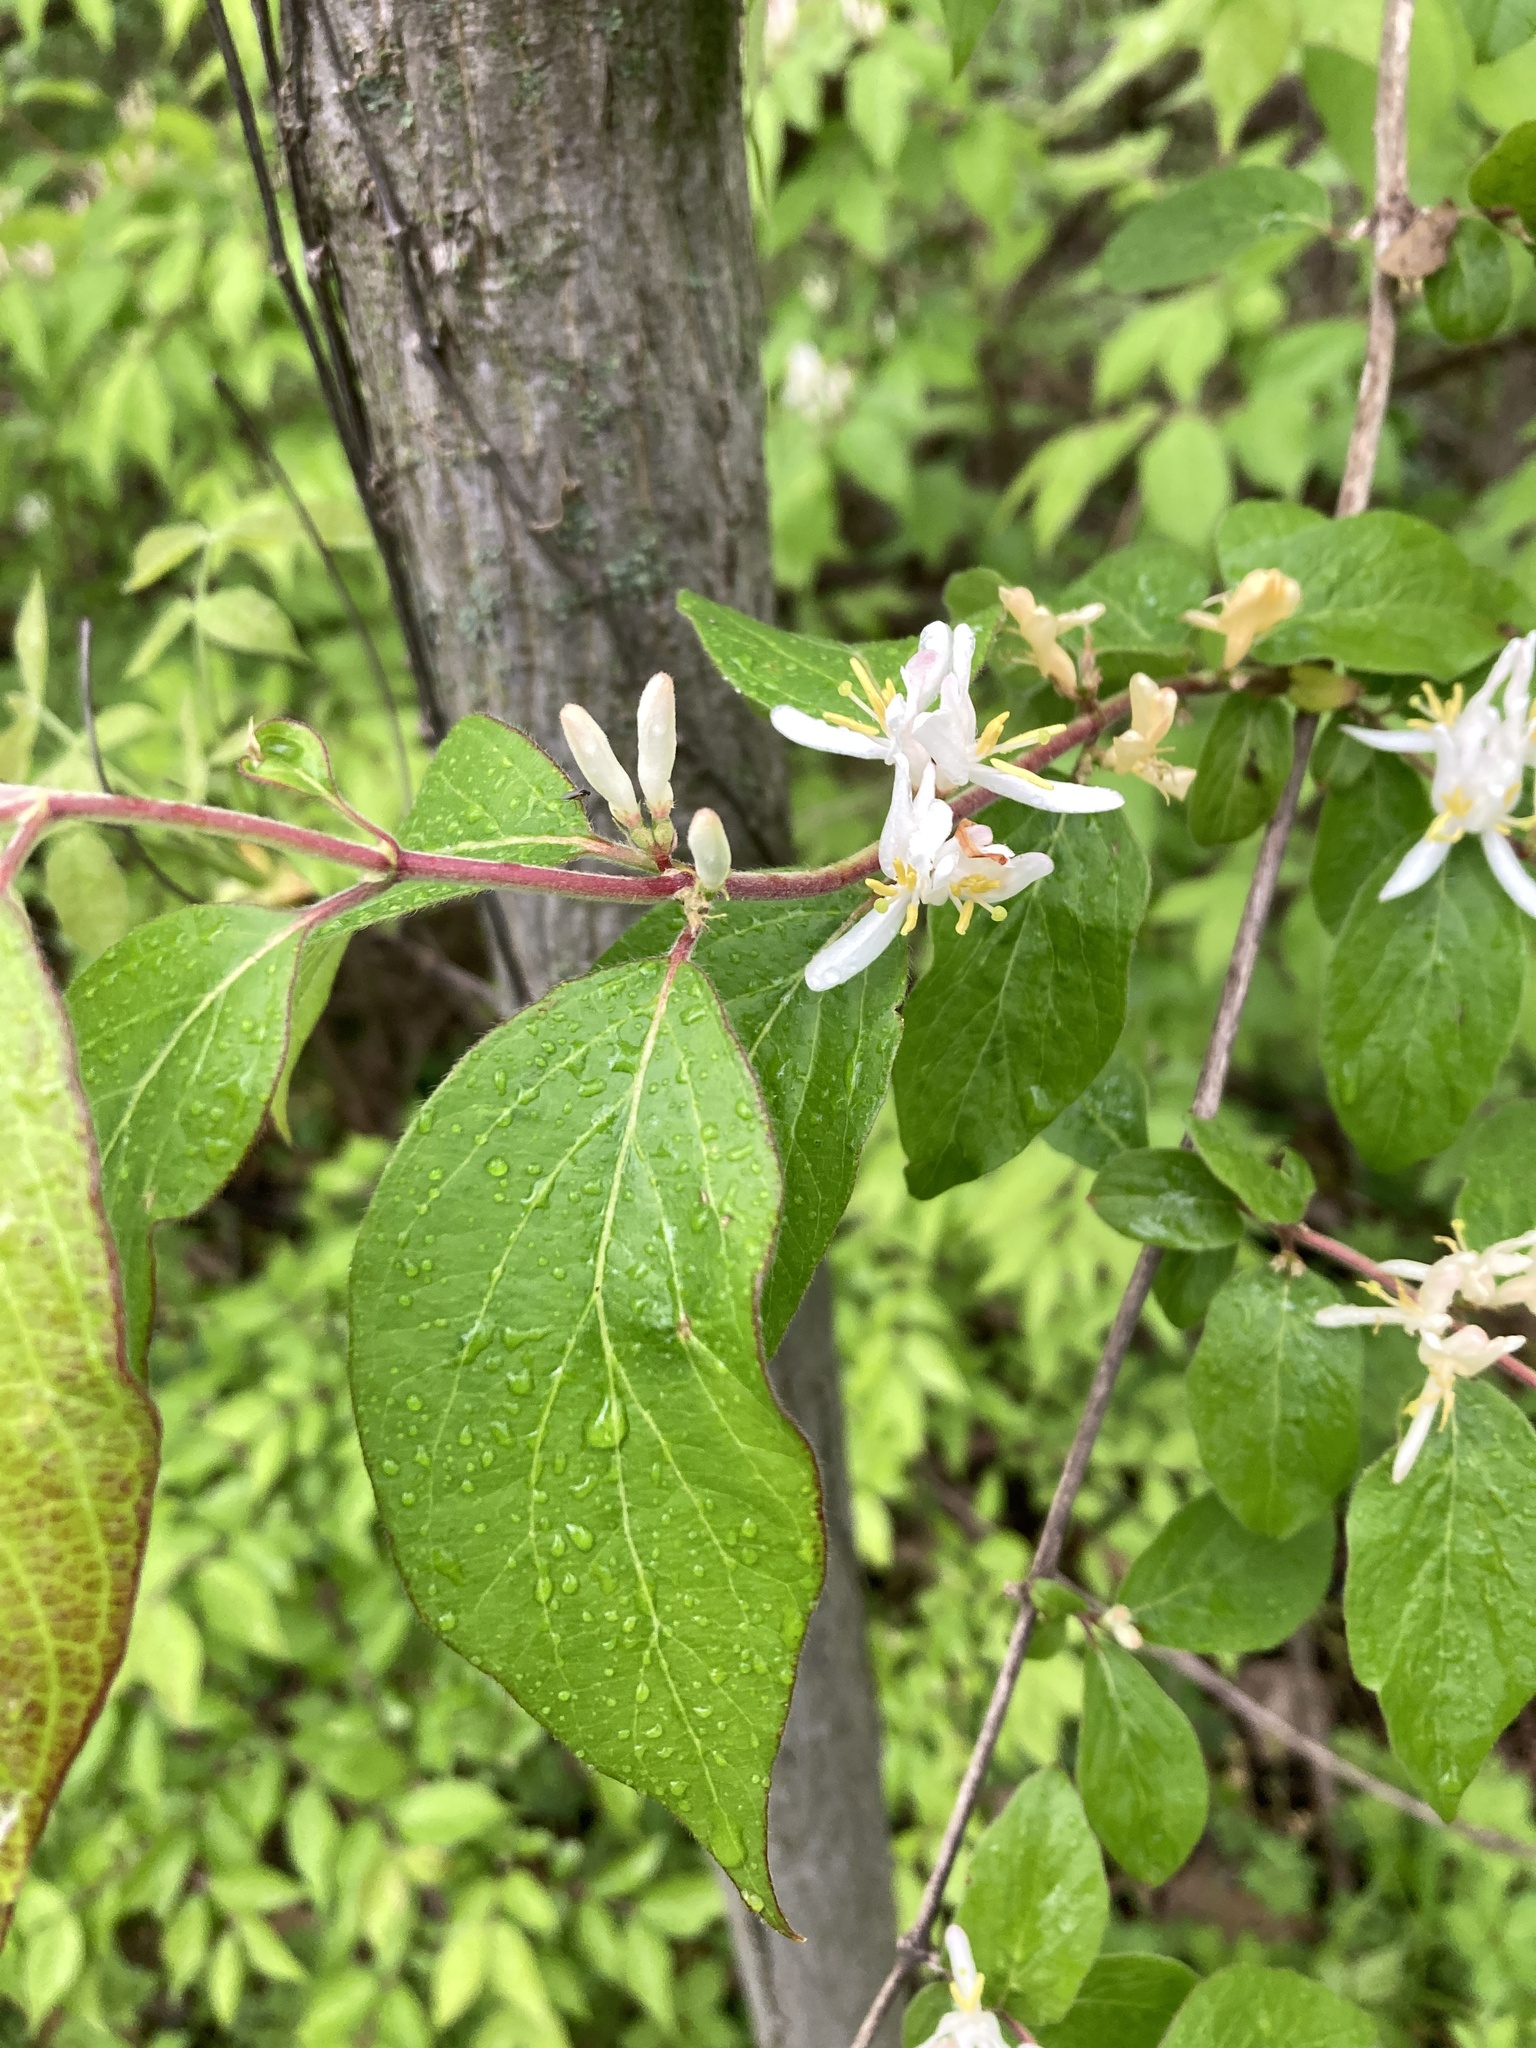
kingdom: Plantae
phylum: Tracheophyta
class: Magnoliopsida
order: Dipsacales
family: Caprifoliaceae
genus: Lonicera
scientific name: Lonicera maackii
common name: Amur honeysuckle
